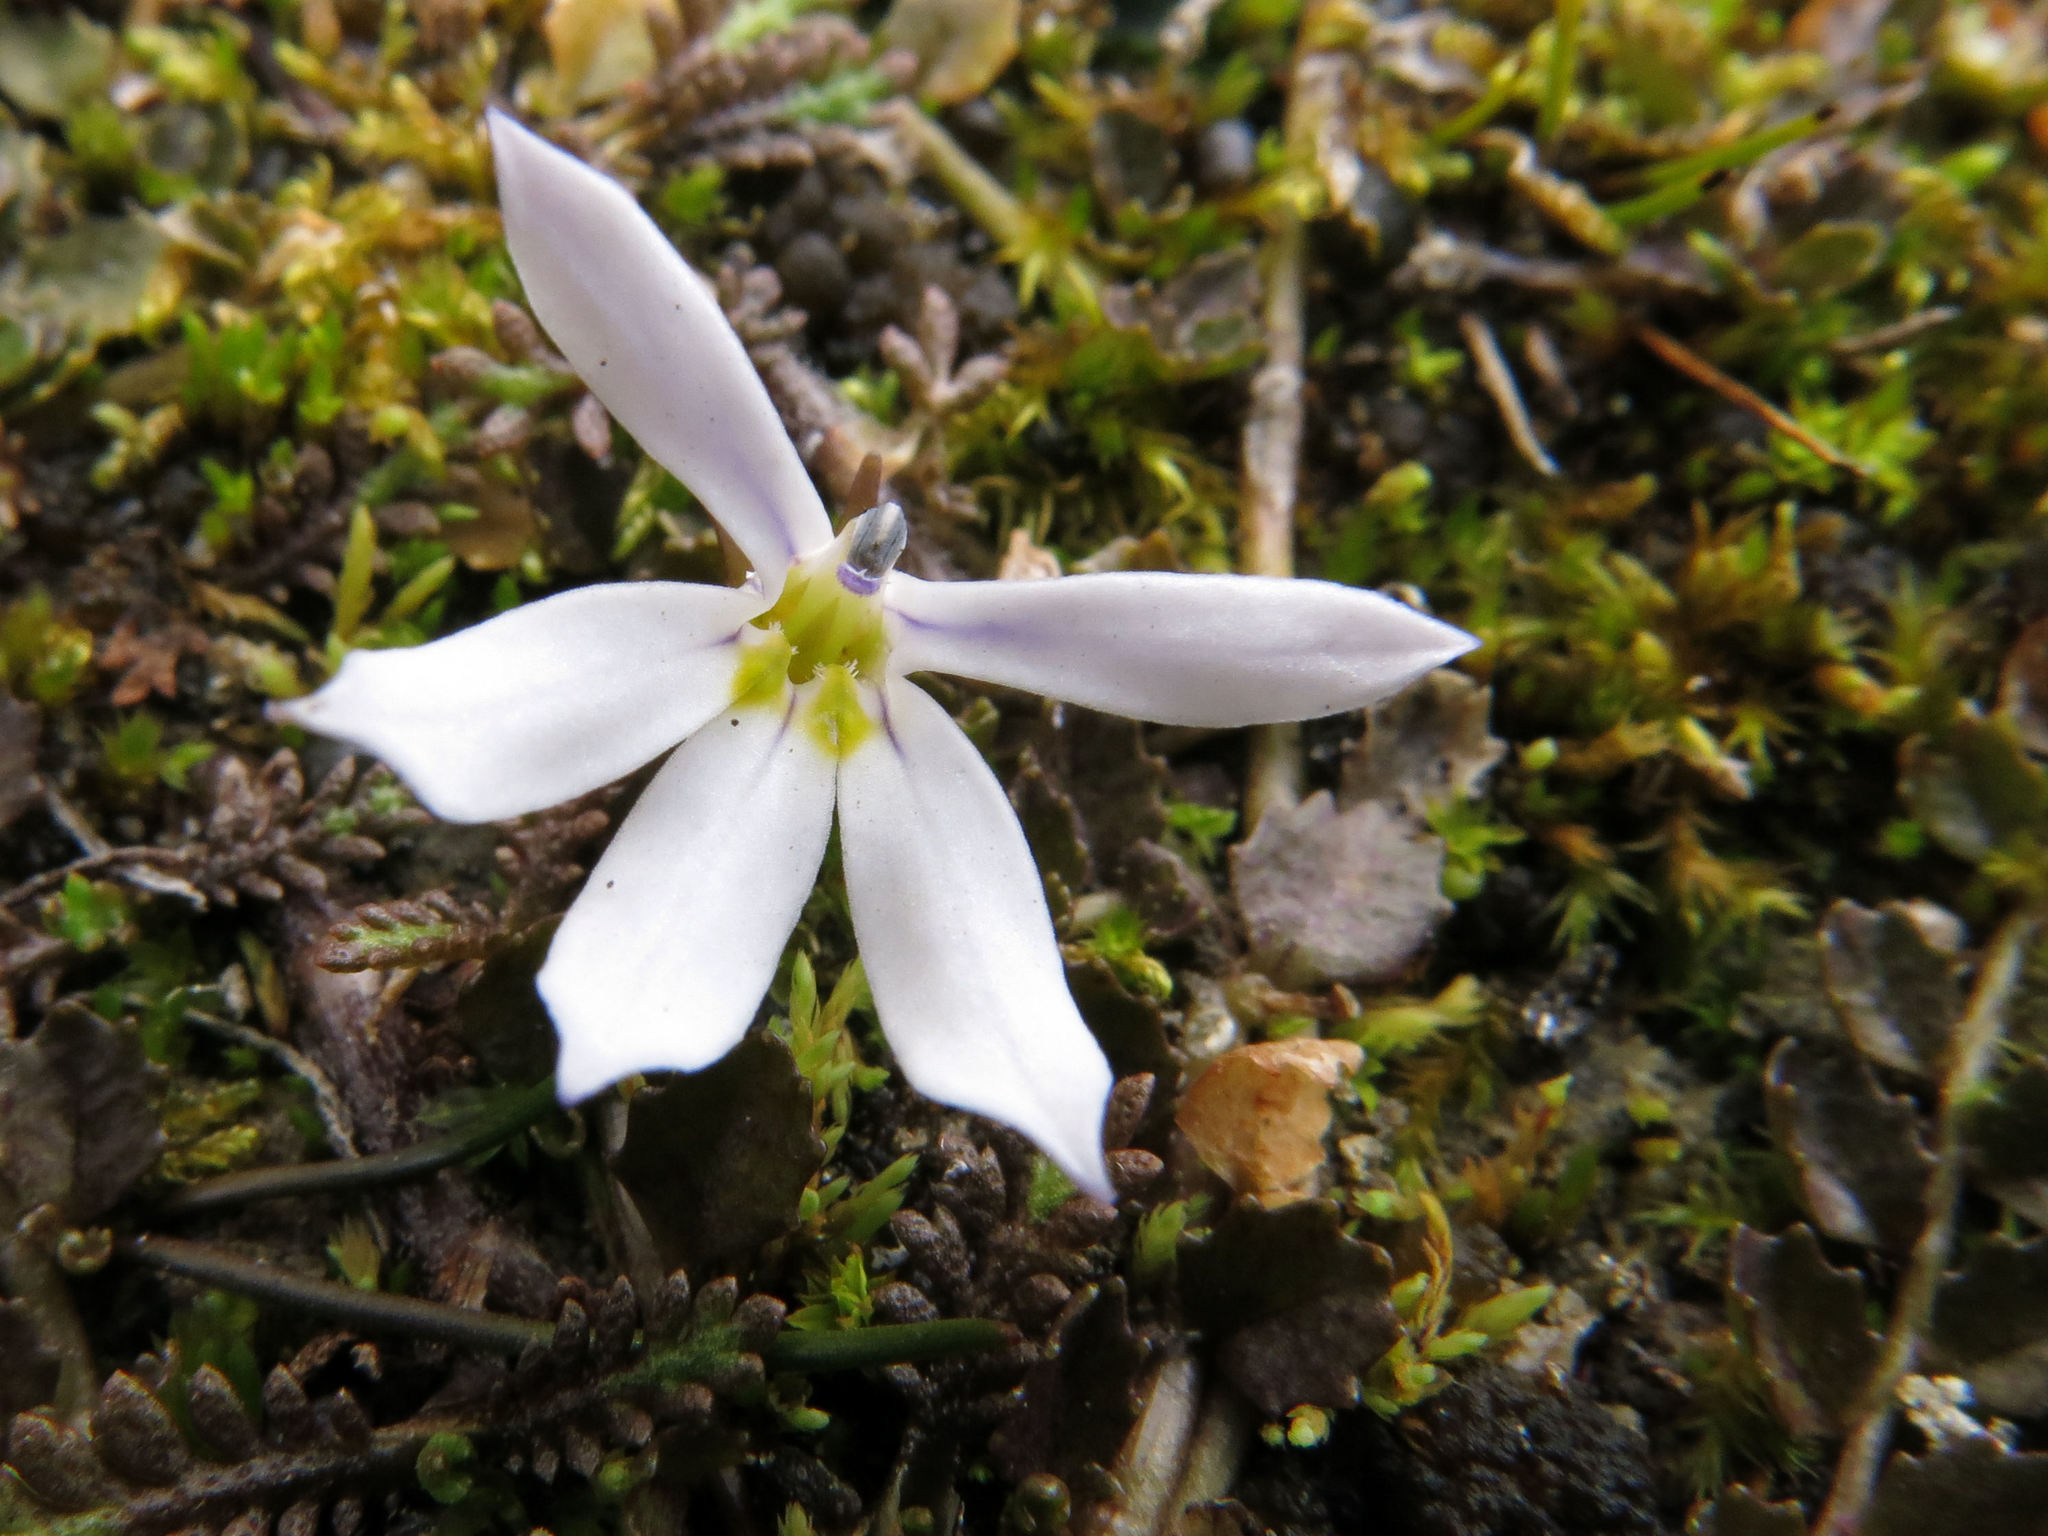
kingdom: Plantae
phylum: Tracheophyta
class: Magnoliopsida
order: Asterales
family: Campanulaceae
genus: Lobelia
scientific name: Lobelia angulata
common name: Lawn lobelia
